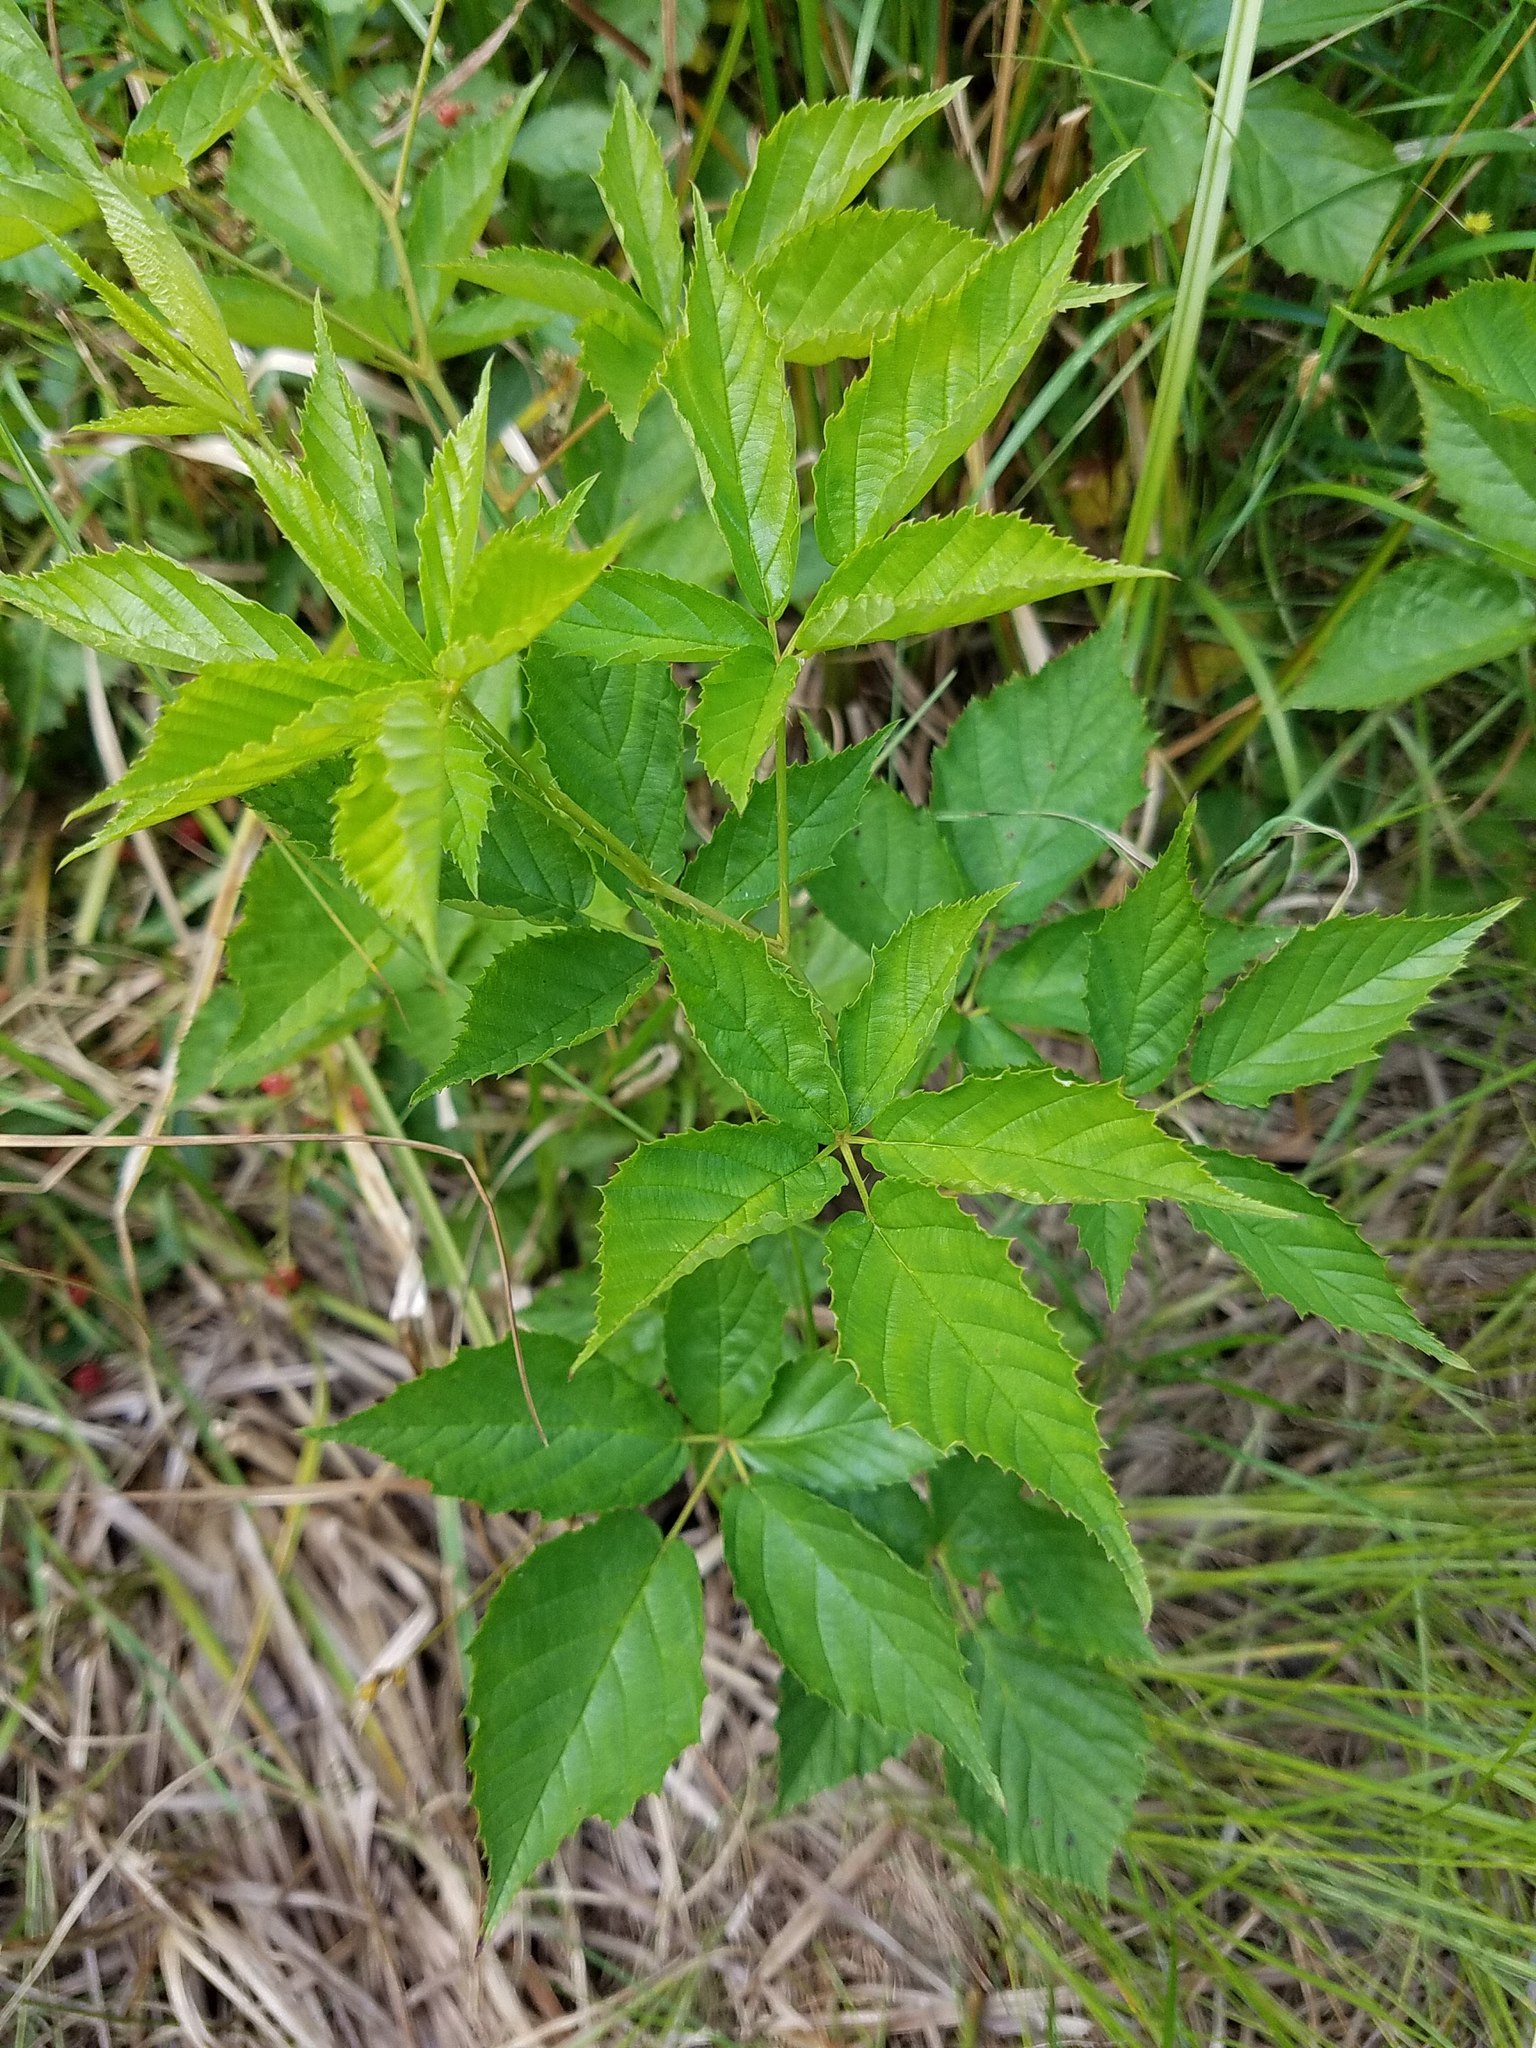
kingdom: Plantae
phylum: Tracheophyta
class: Magnoliopsida
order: Rosales
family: Rosaceae
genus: Rubus
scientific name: Rubus allegheniensis
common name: Allegheny blackberry
